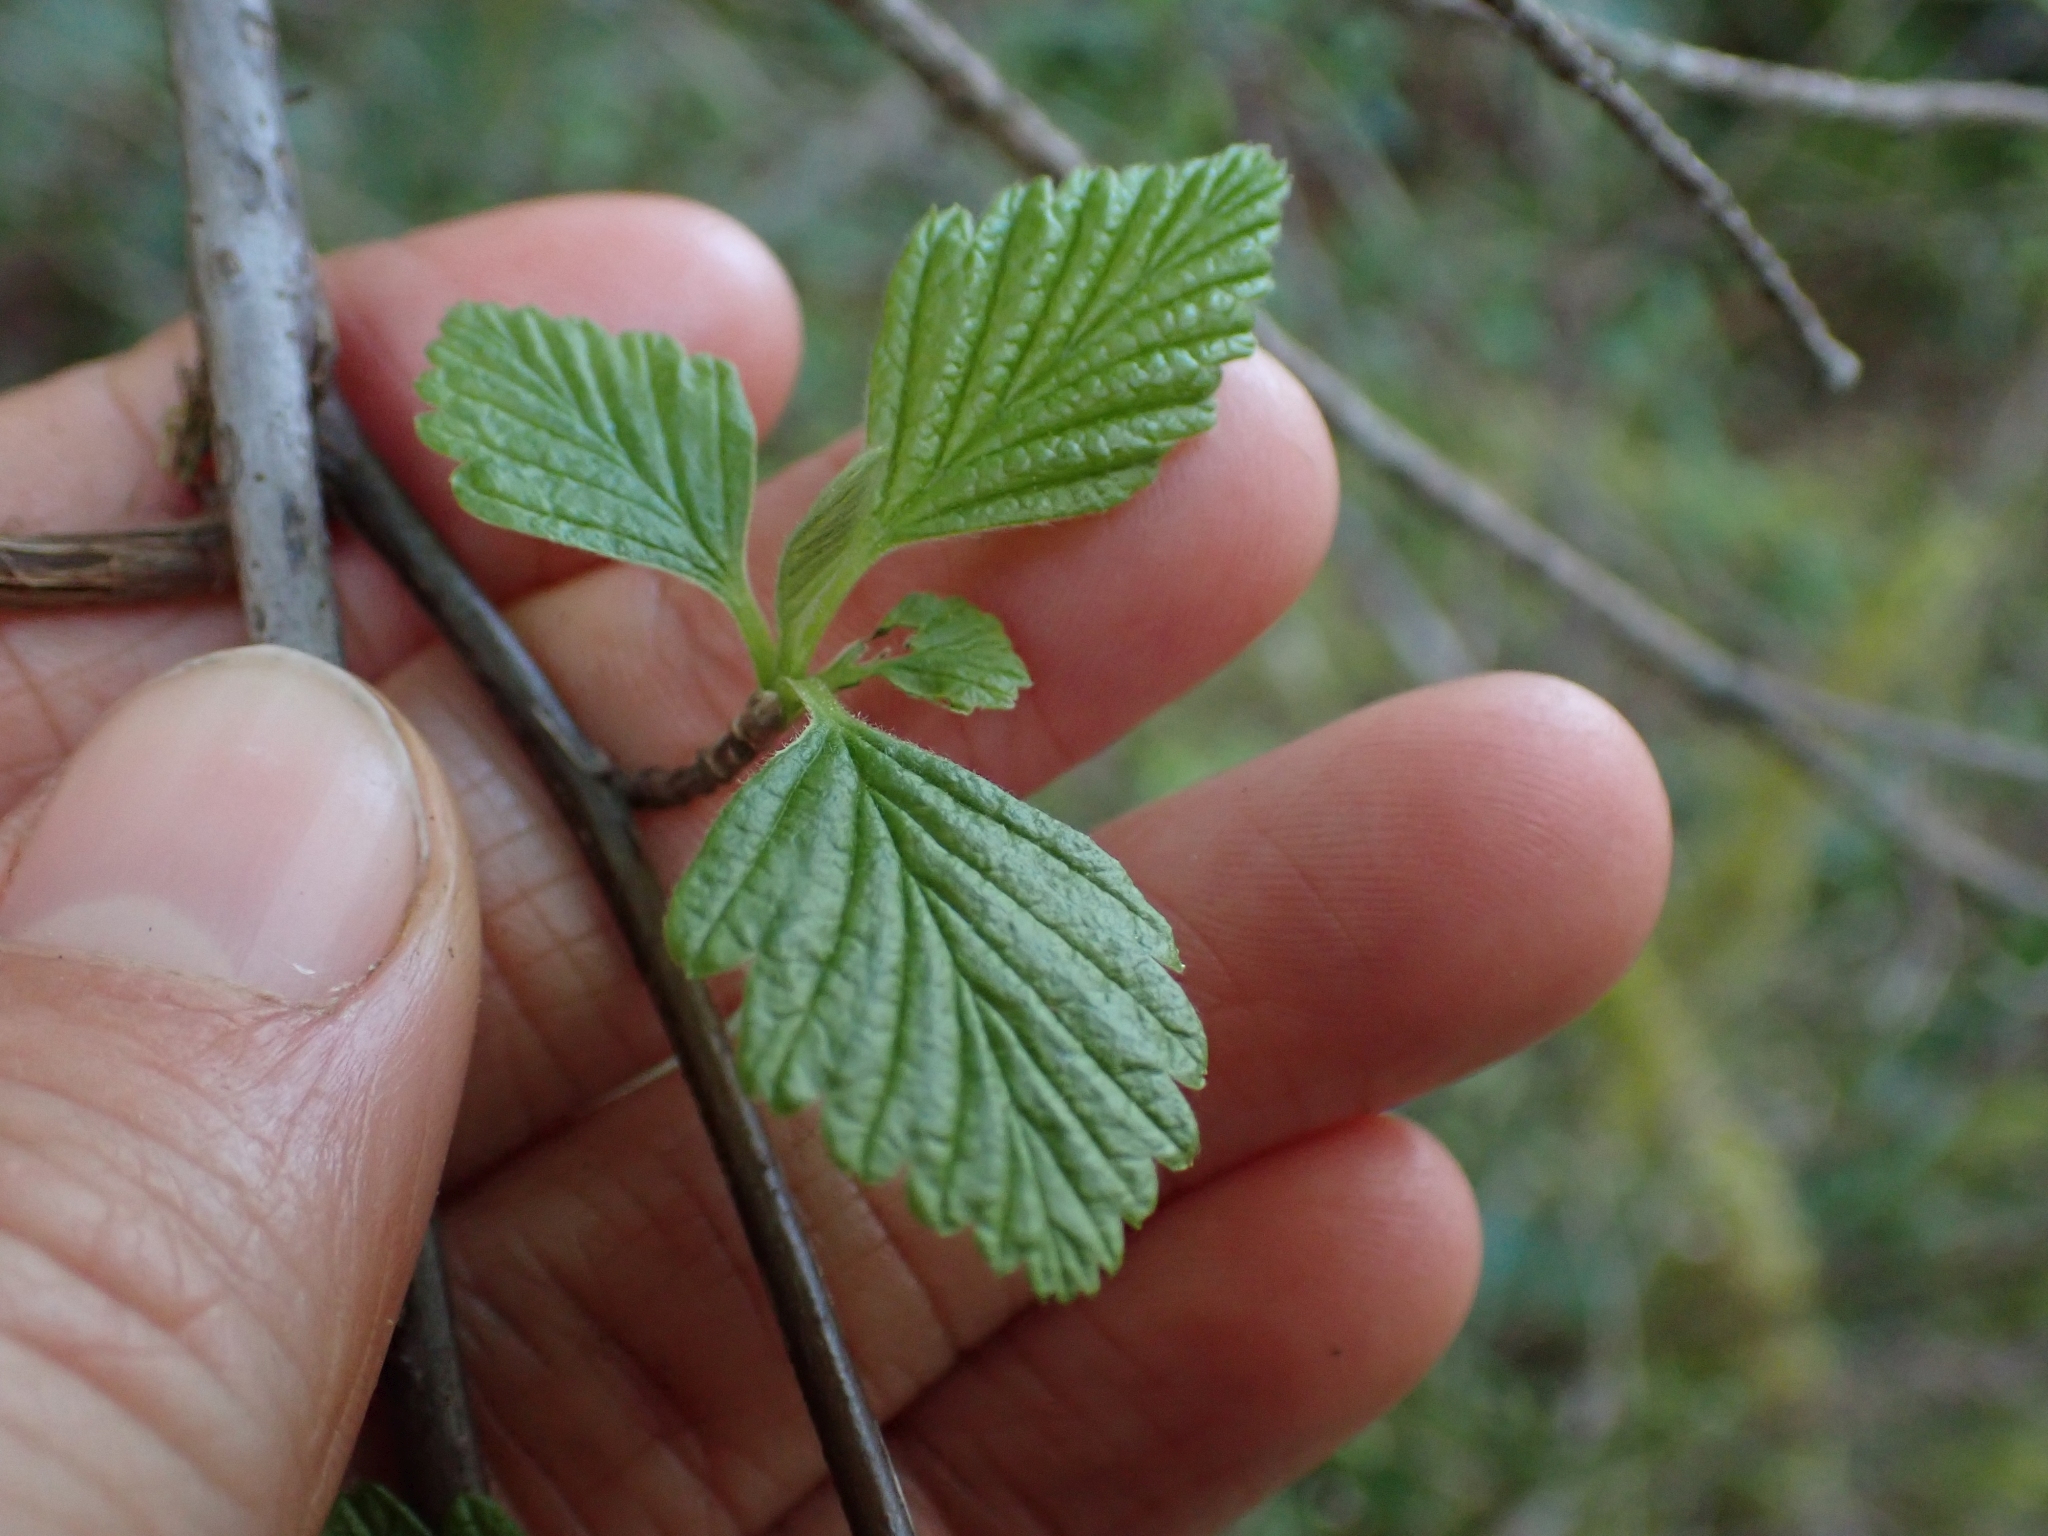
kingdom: Plantae
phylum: Tracheophyta
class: Magnoliopsida
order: Rosales
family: Rosaceae
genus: Holodiscus
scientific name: Holodiscus discolor
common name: Oceanspray
